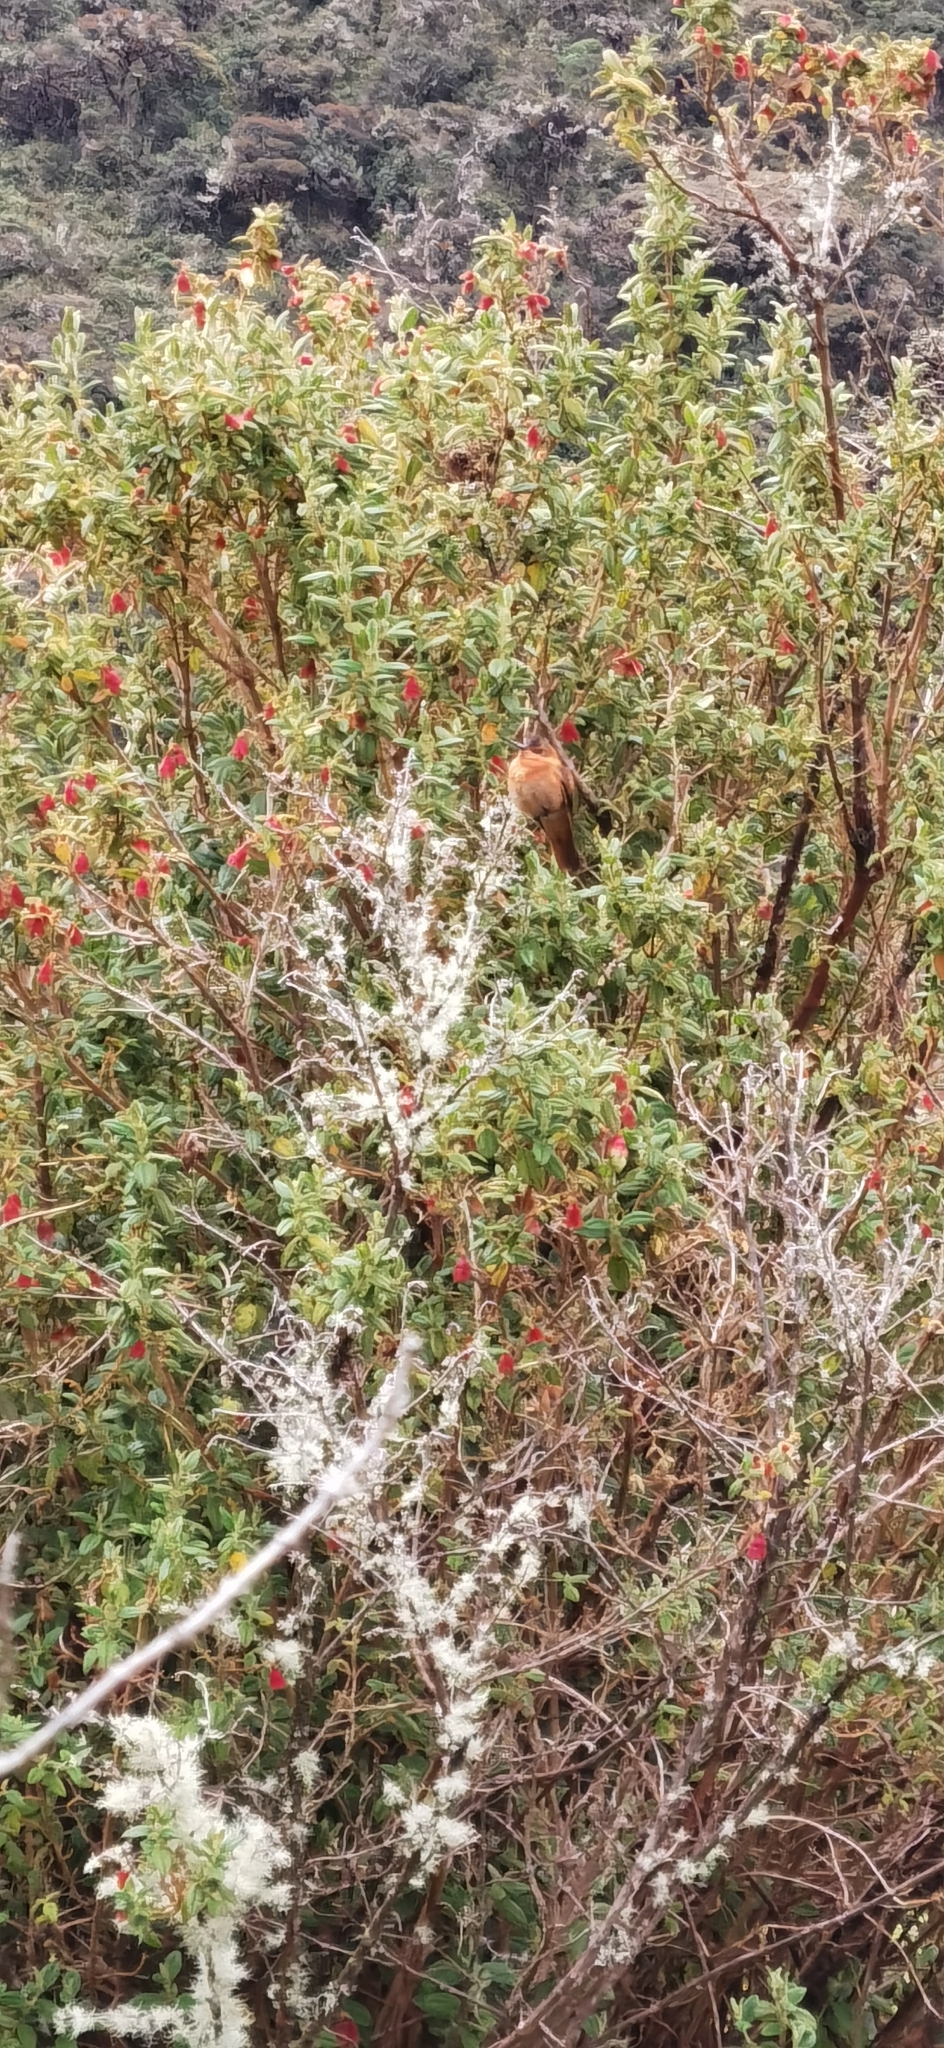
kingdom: Animalia
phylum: Chordata
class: Aves
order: Apodiformes
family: Trochilidae
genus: Aglaeactis
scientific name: Aglaeactis cupripennis
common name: Shining sunbeam
